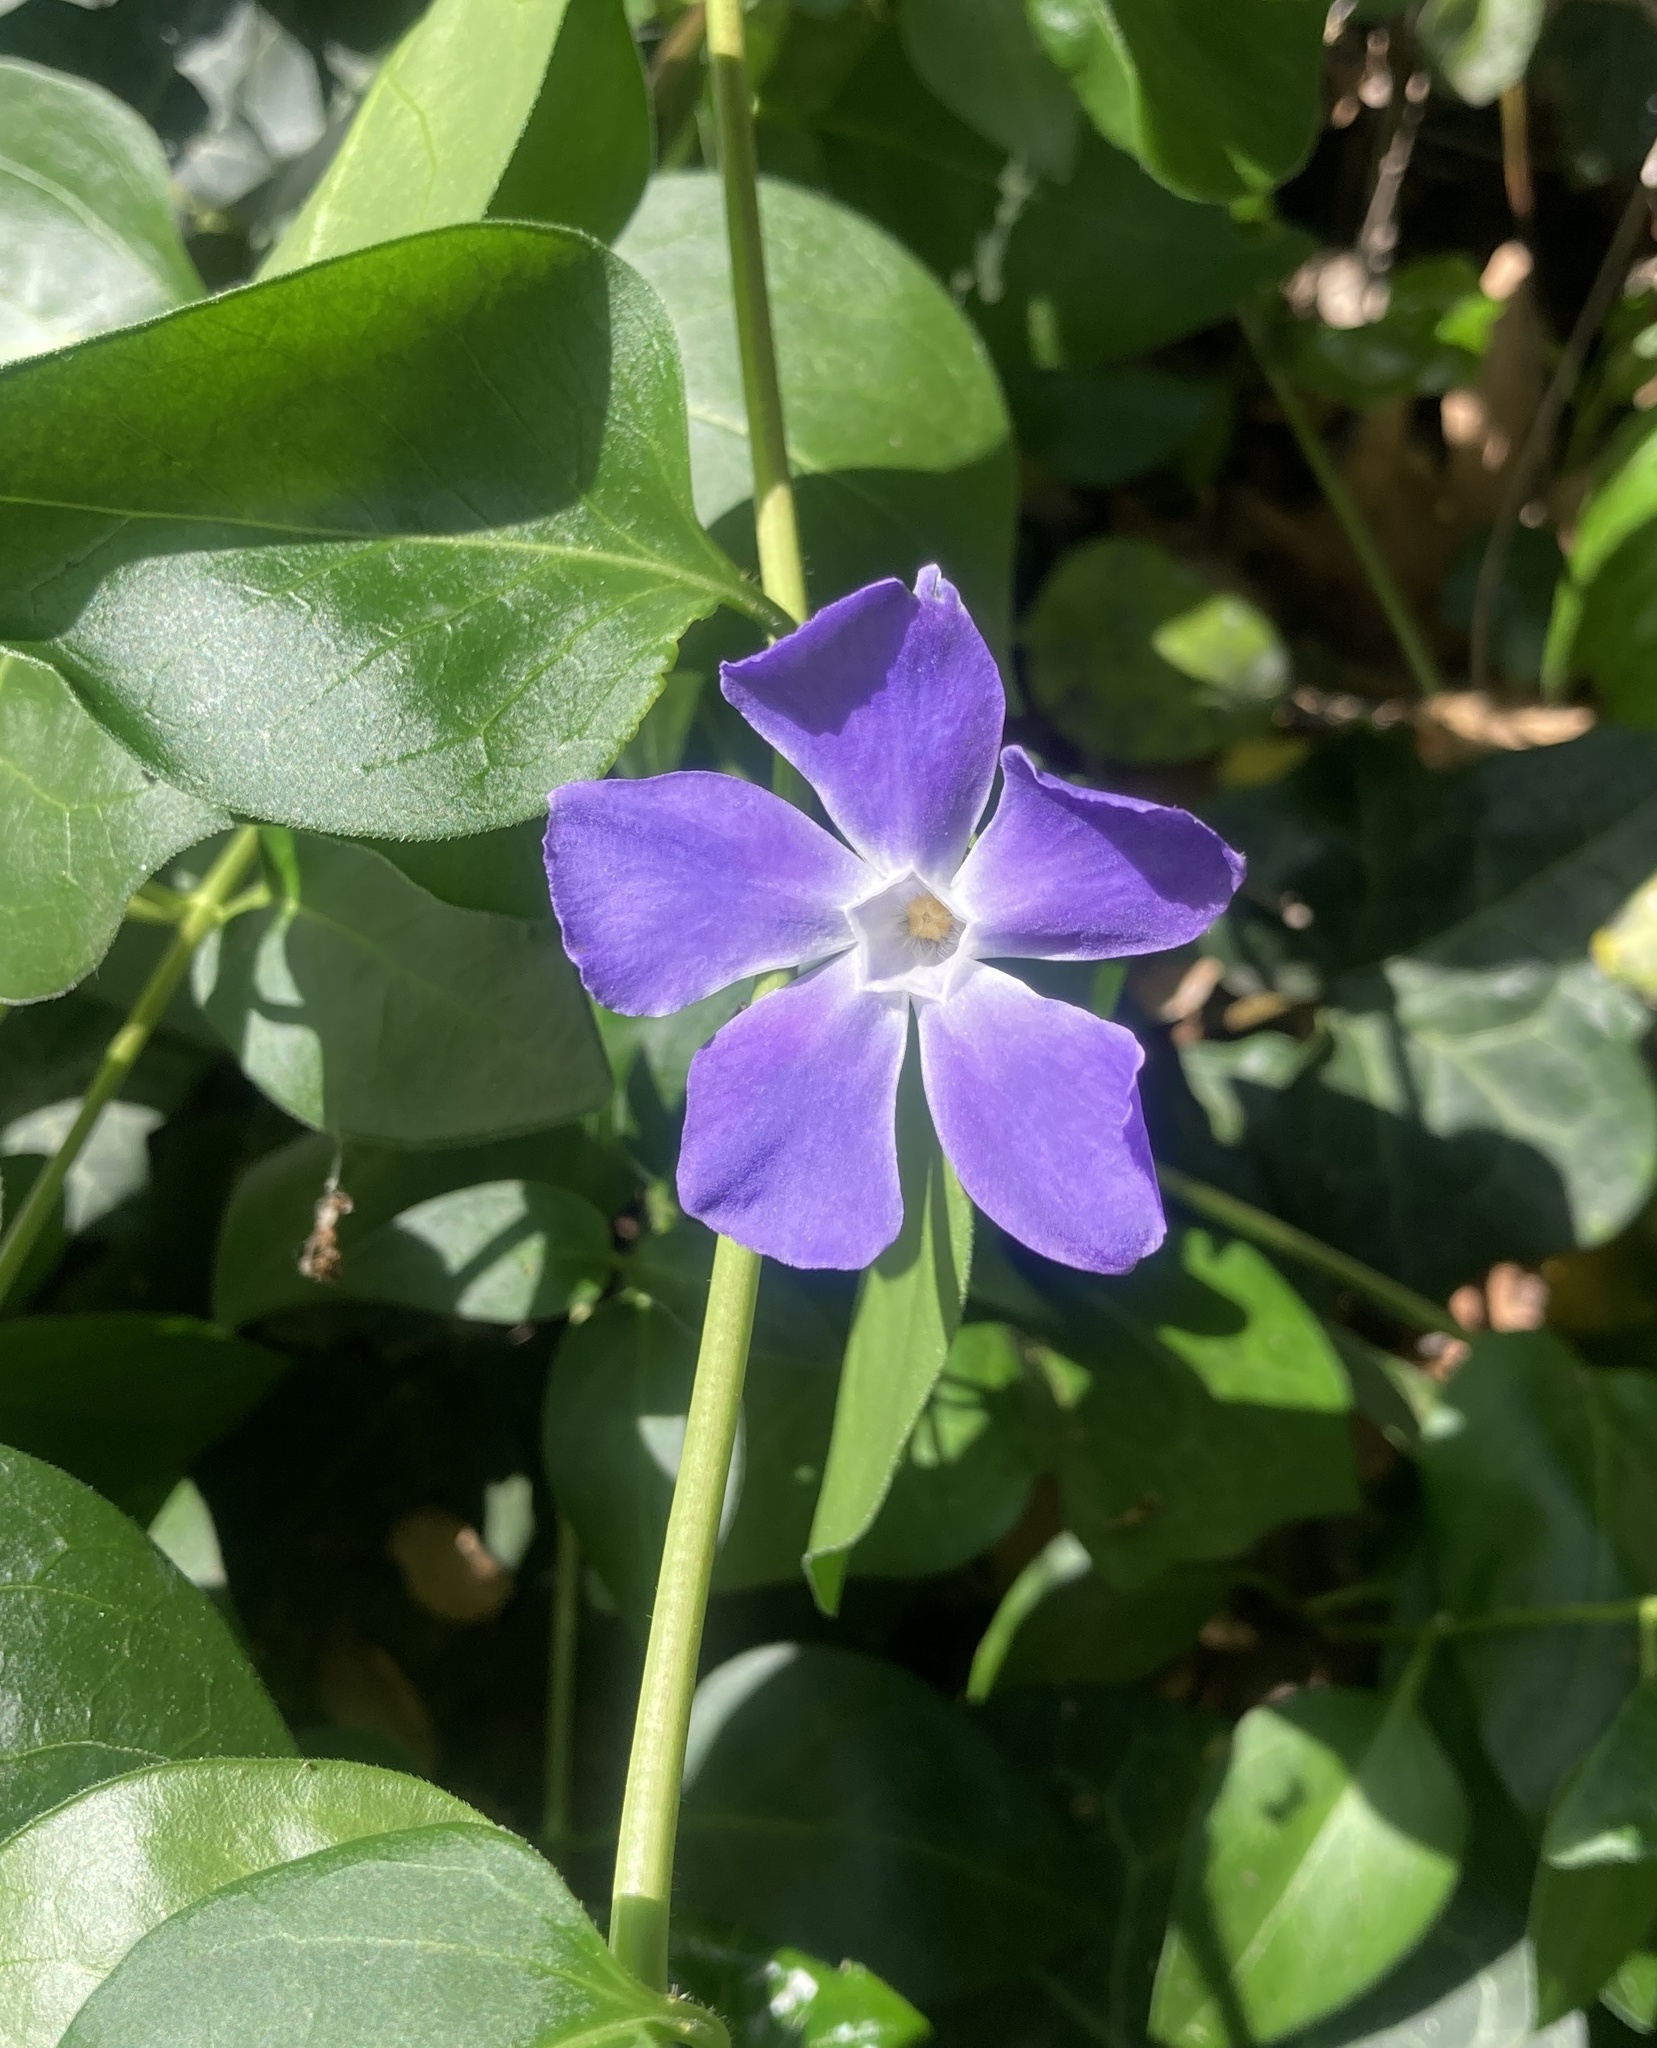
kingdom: Plantae
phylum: Tracheophyta
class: Magnoliopsida
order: Gentianales
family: Apocynaceae
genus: Vinca
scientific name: Vinca major
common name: Greater periwinkle
